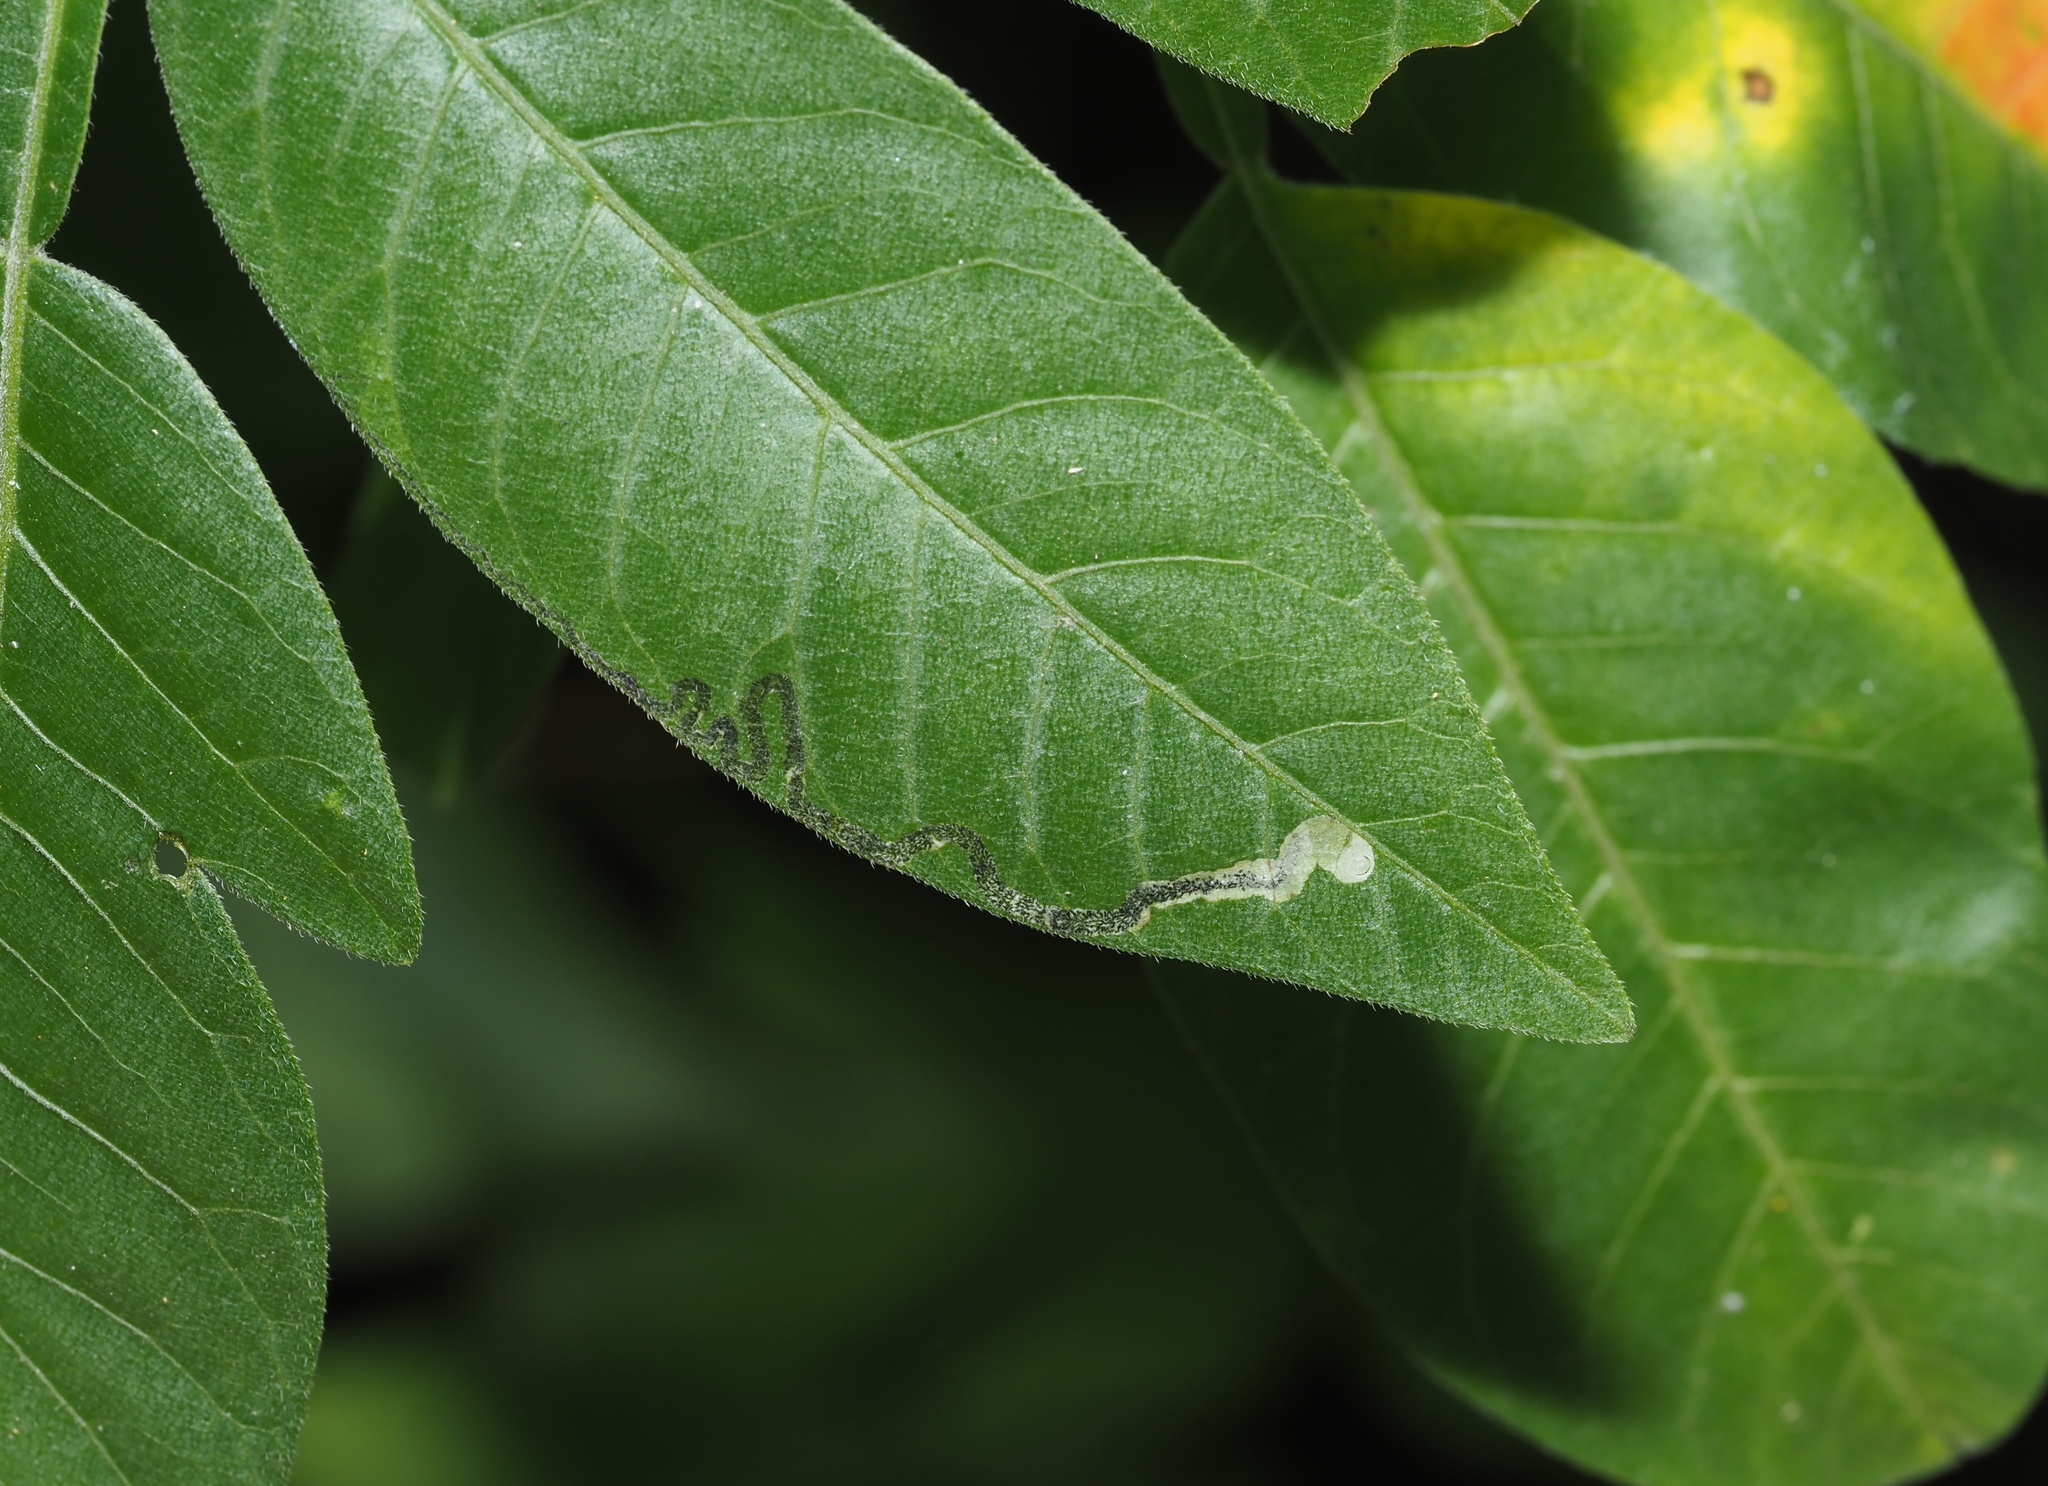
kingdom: Animalia
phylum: Arthropoda
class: Insecta
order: Lepidoptera
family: Nepticulidae
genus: Stigmella
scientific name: Stigmella intermedia
